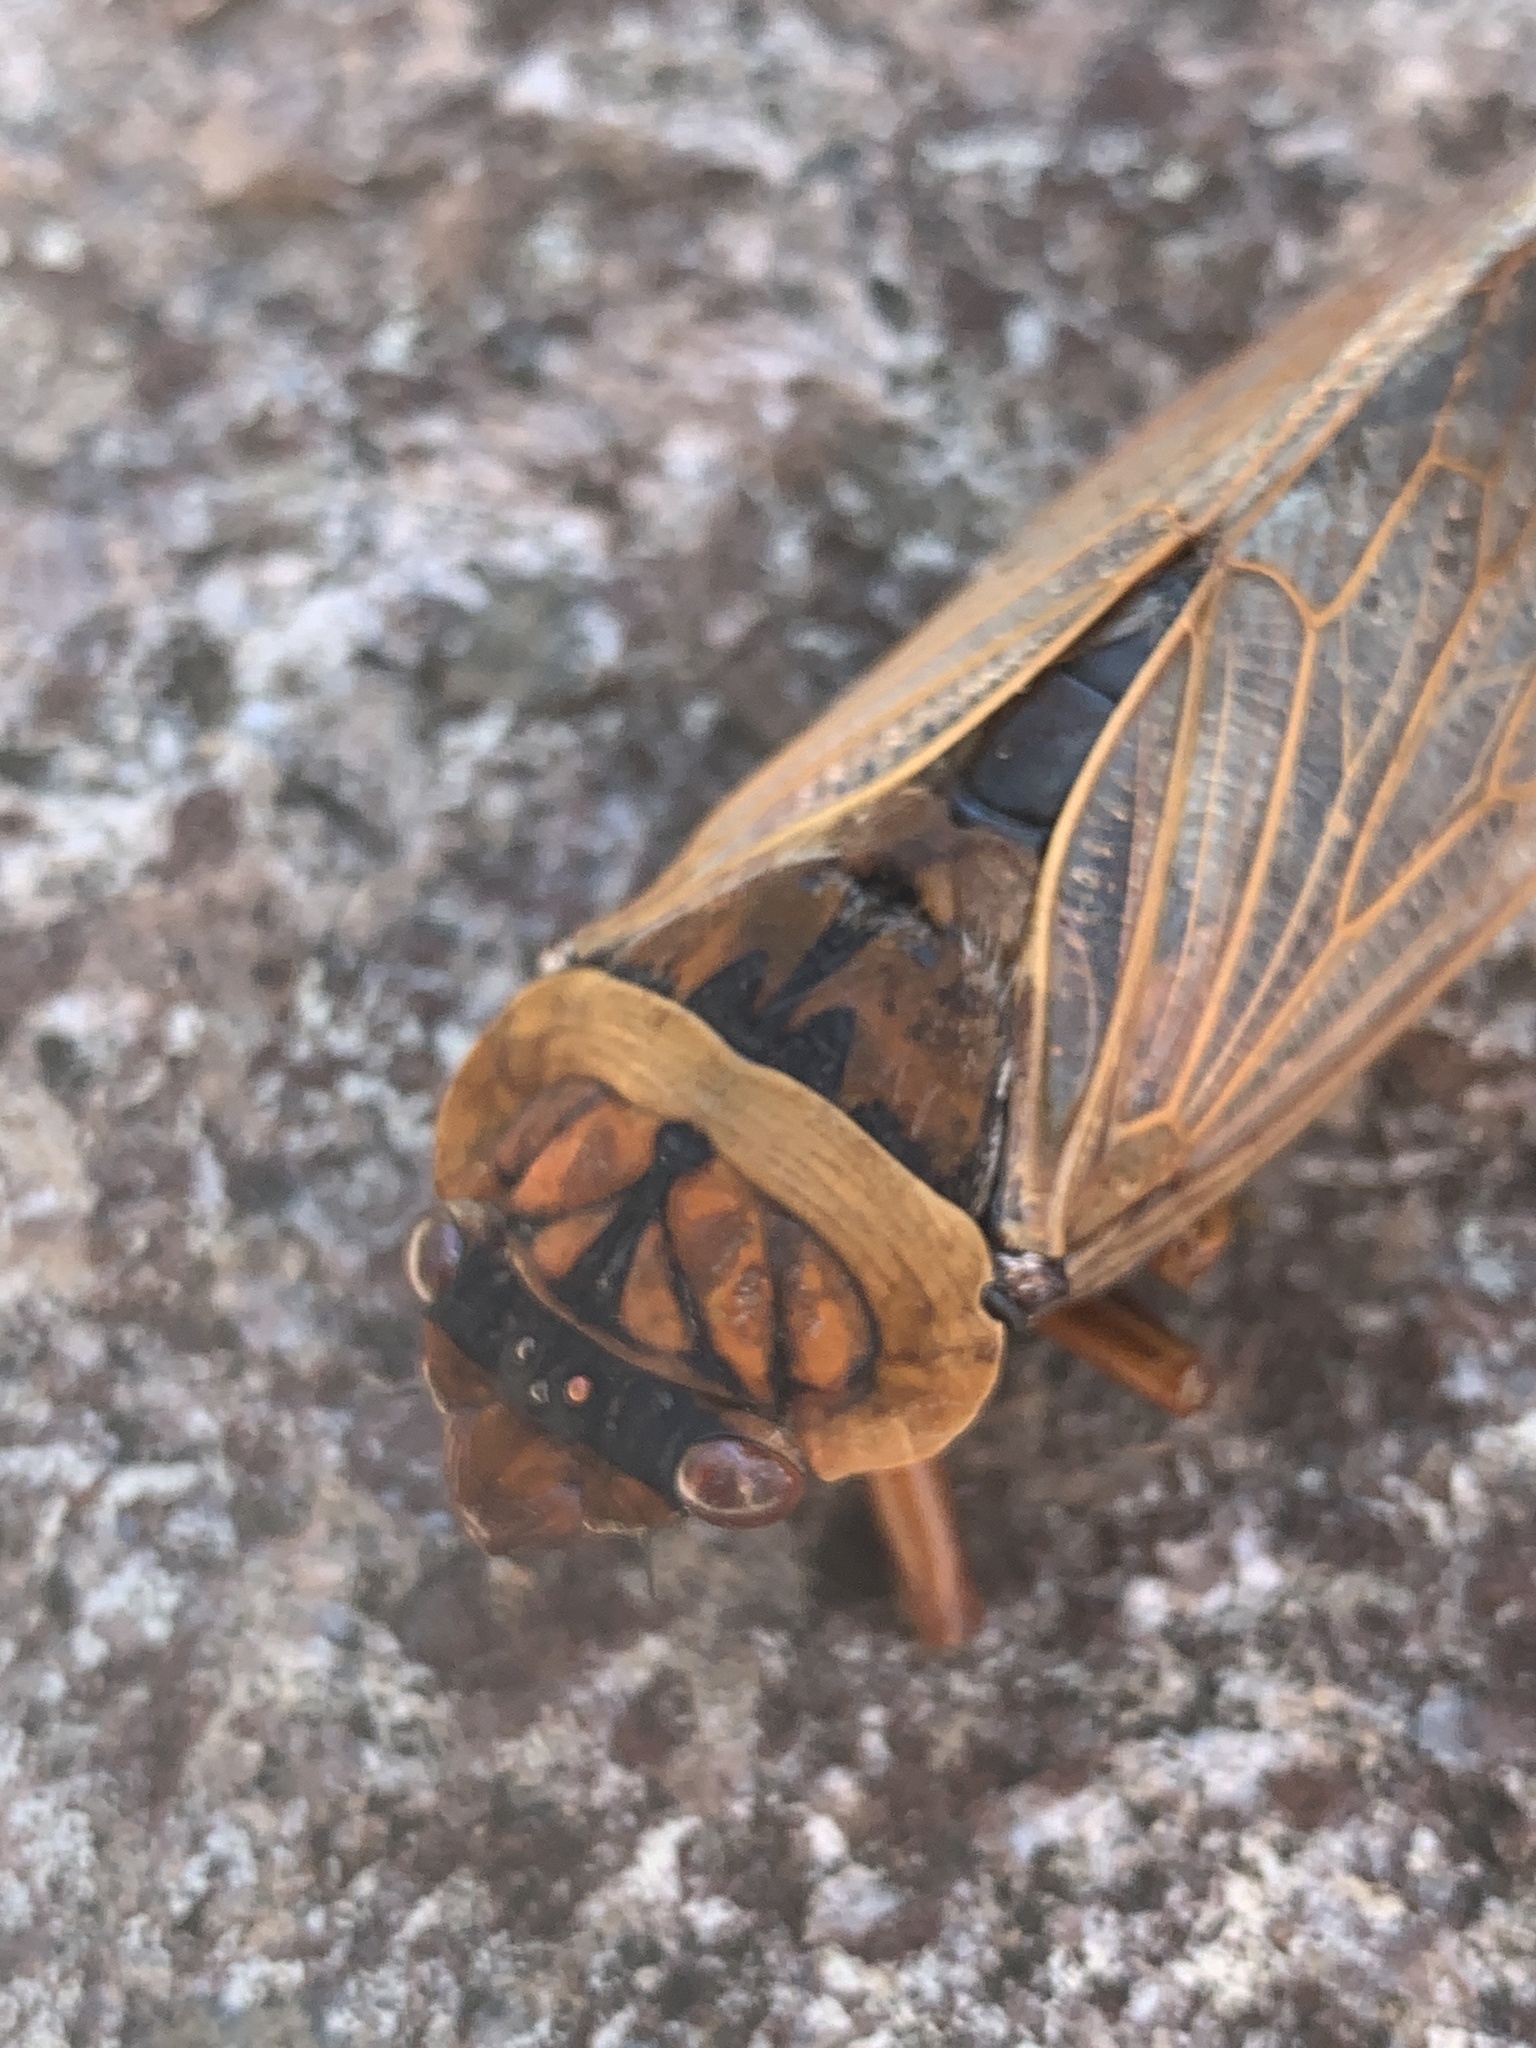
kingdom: Animalia
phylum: Arthropoda
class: Insecta
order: Hemiptera
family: Cicadidae
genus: Cyclochila
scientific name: Cyclochila australasiae
